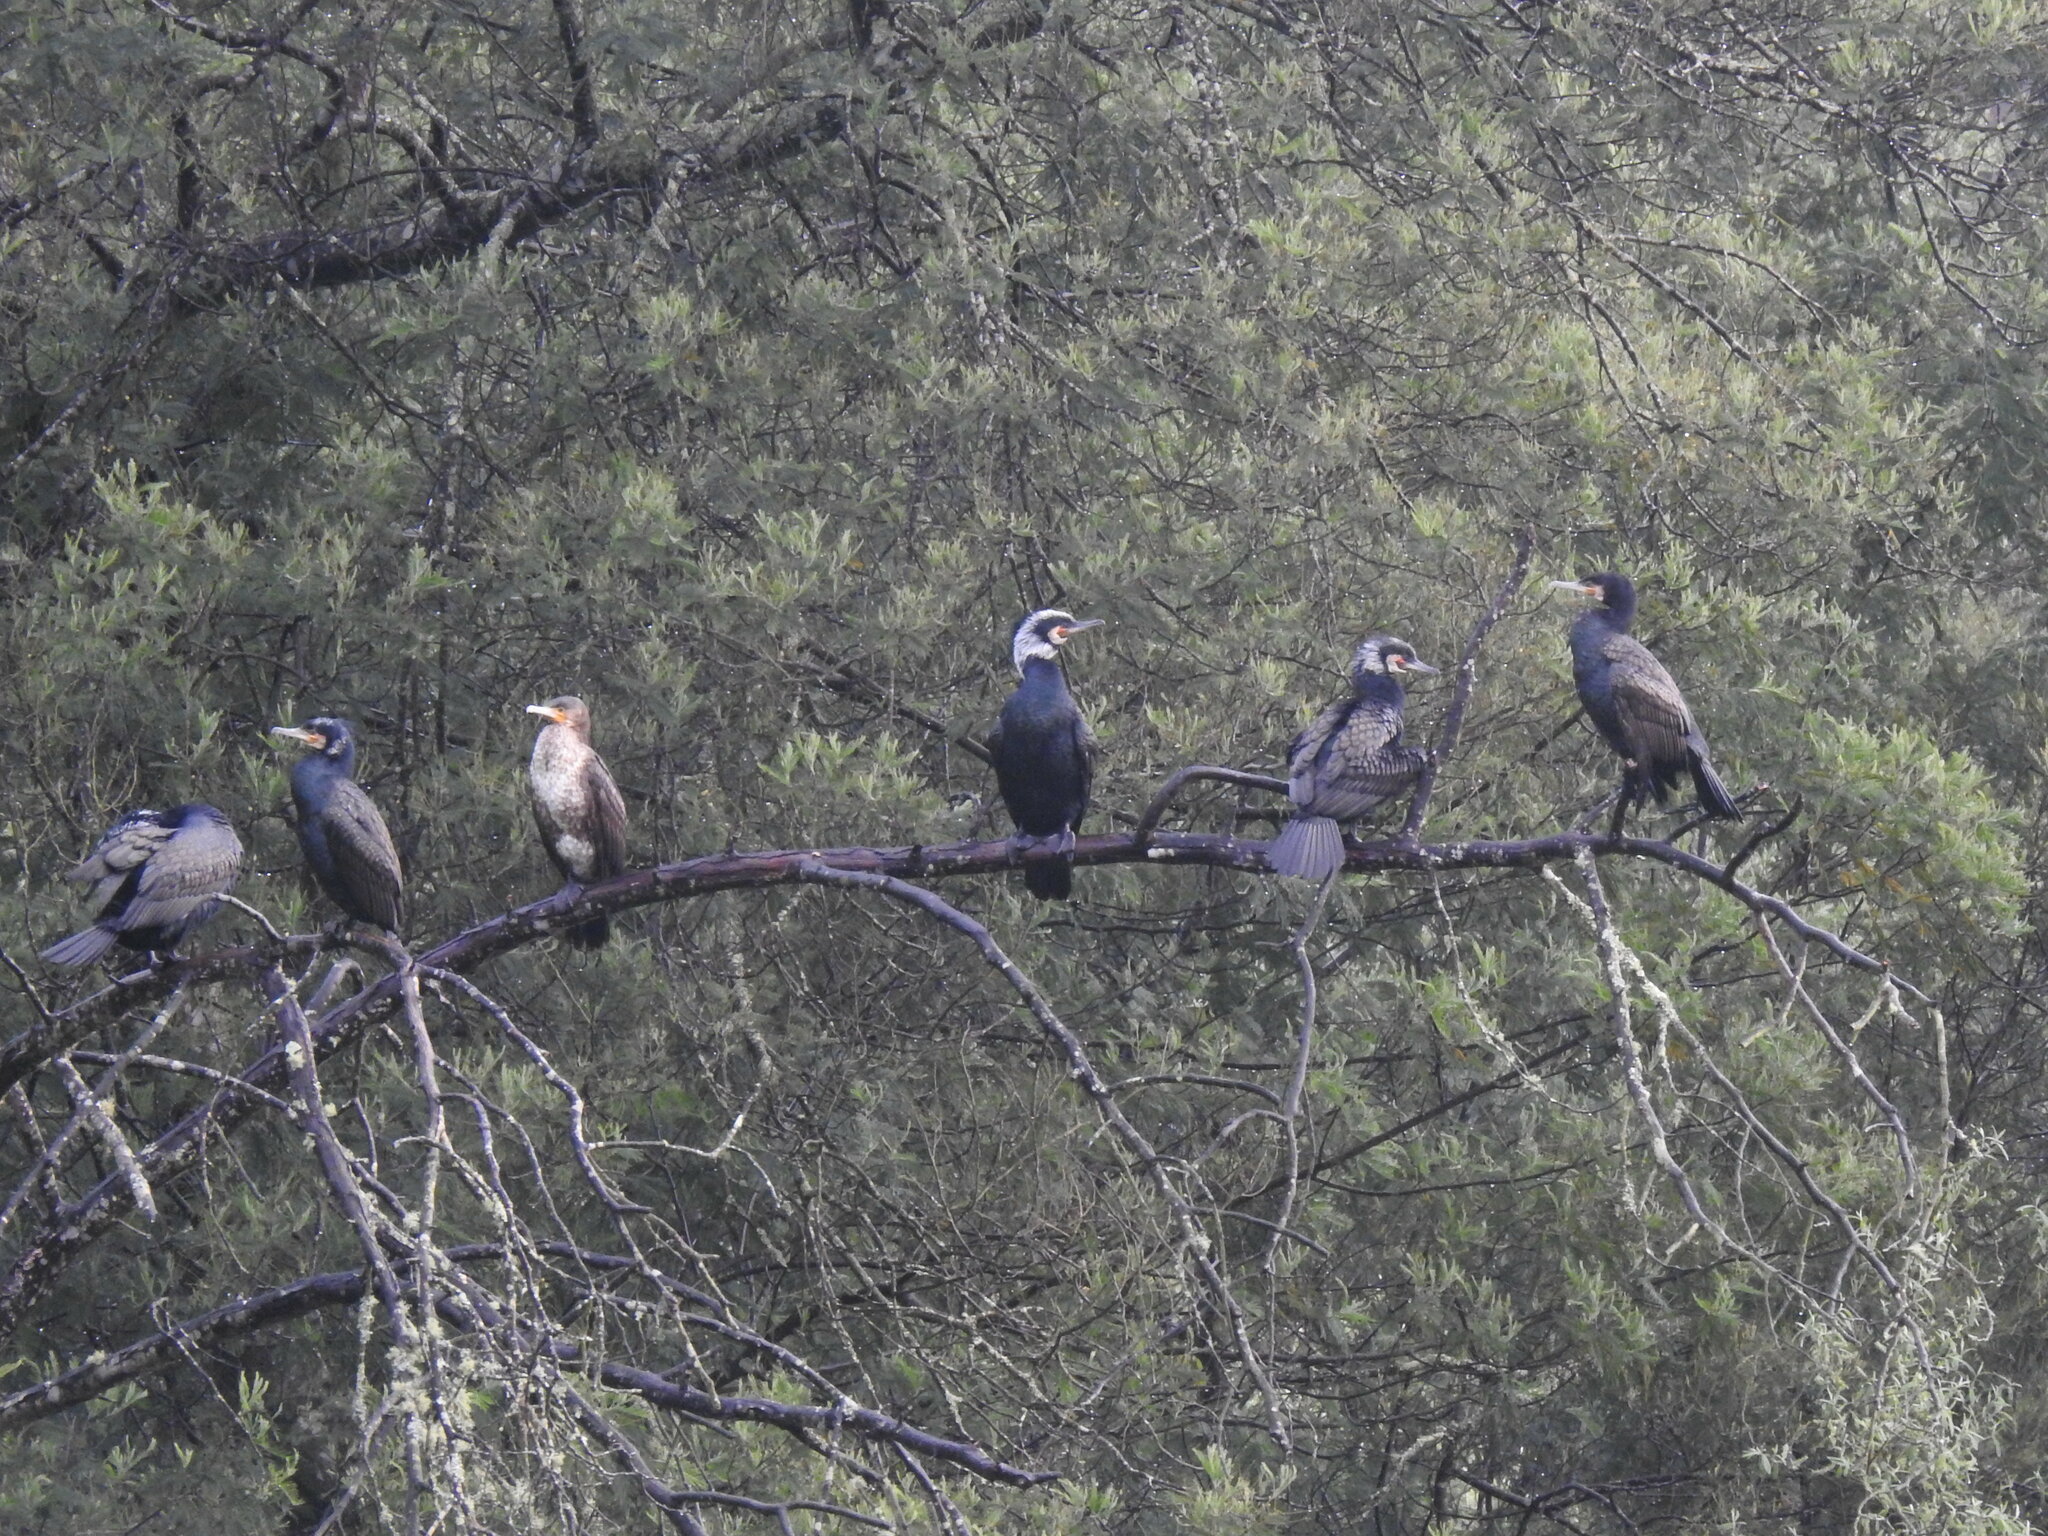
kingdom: Animalia
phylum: Chordata
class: Aves
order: Suliformes
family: Phalacrocoracidae
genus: Phalacrocorax
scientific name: Phalacrocorax carbo
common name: Great cormorant
